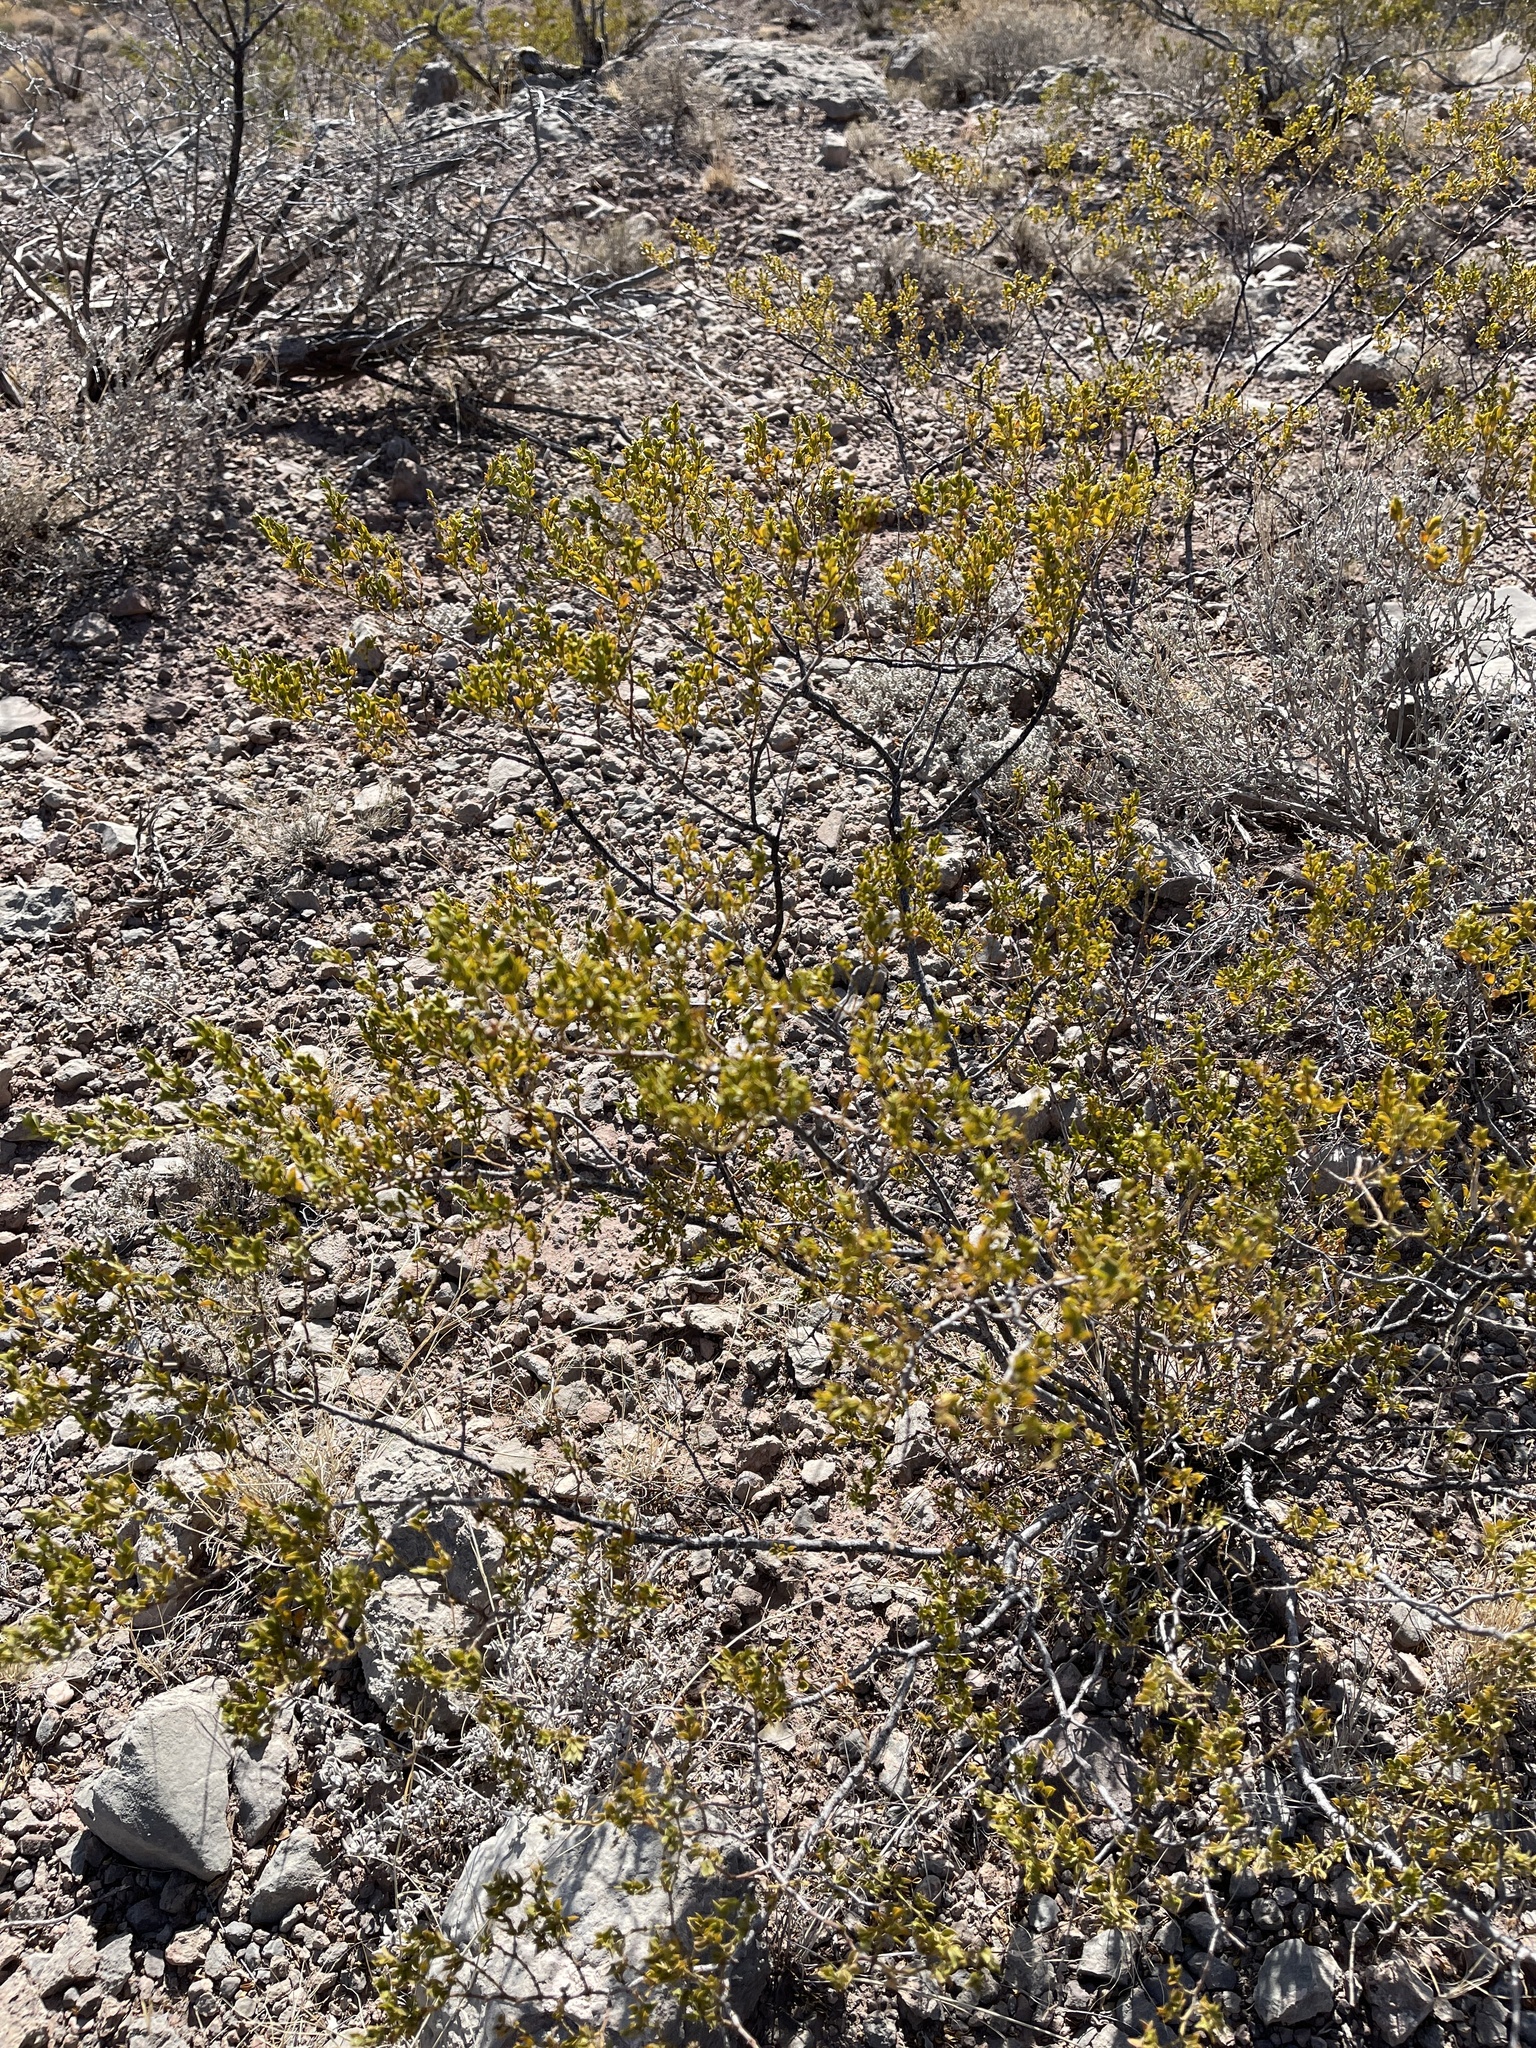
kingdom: Plantae
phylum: Tracheophyta
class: Magnoliopsida
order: Zygophyllales
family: Zygophyllaceae
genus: Larrea
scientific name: Larrea tridentata
